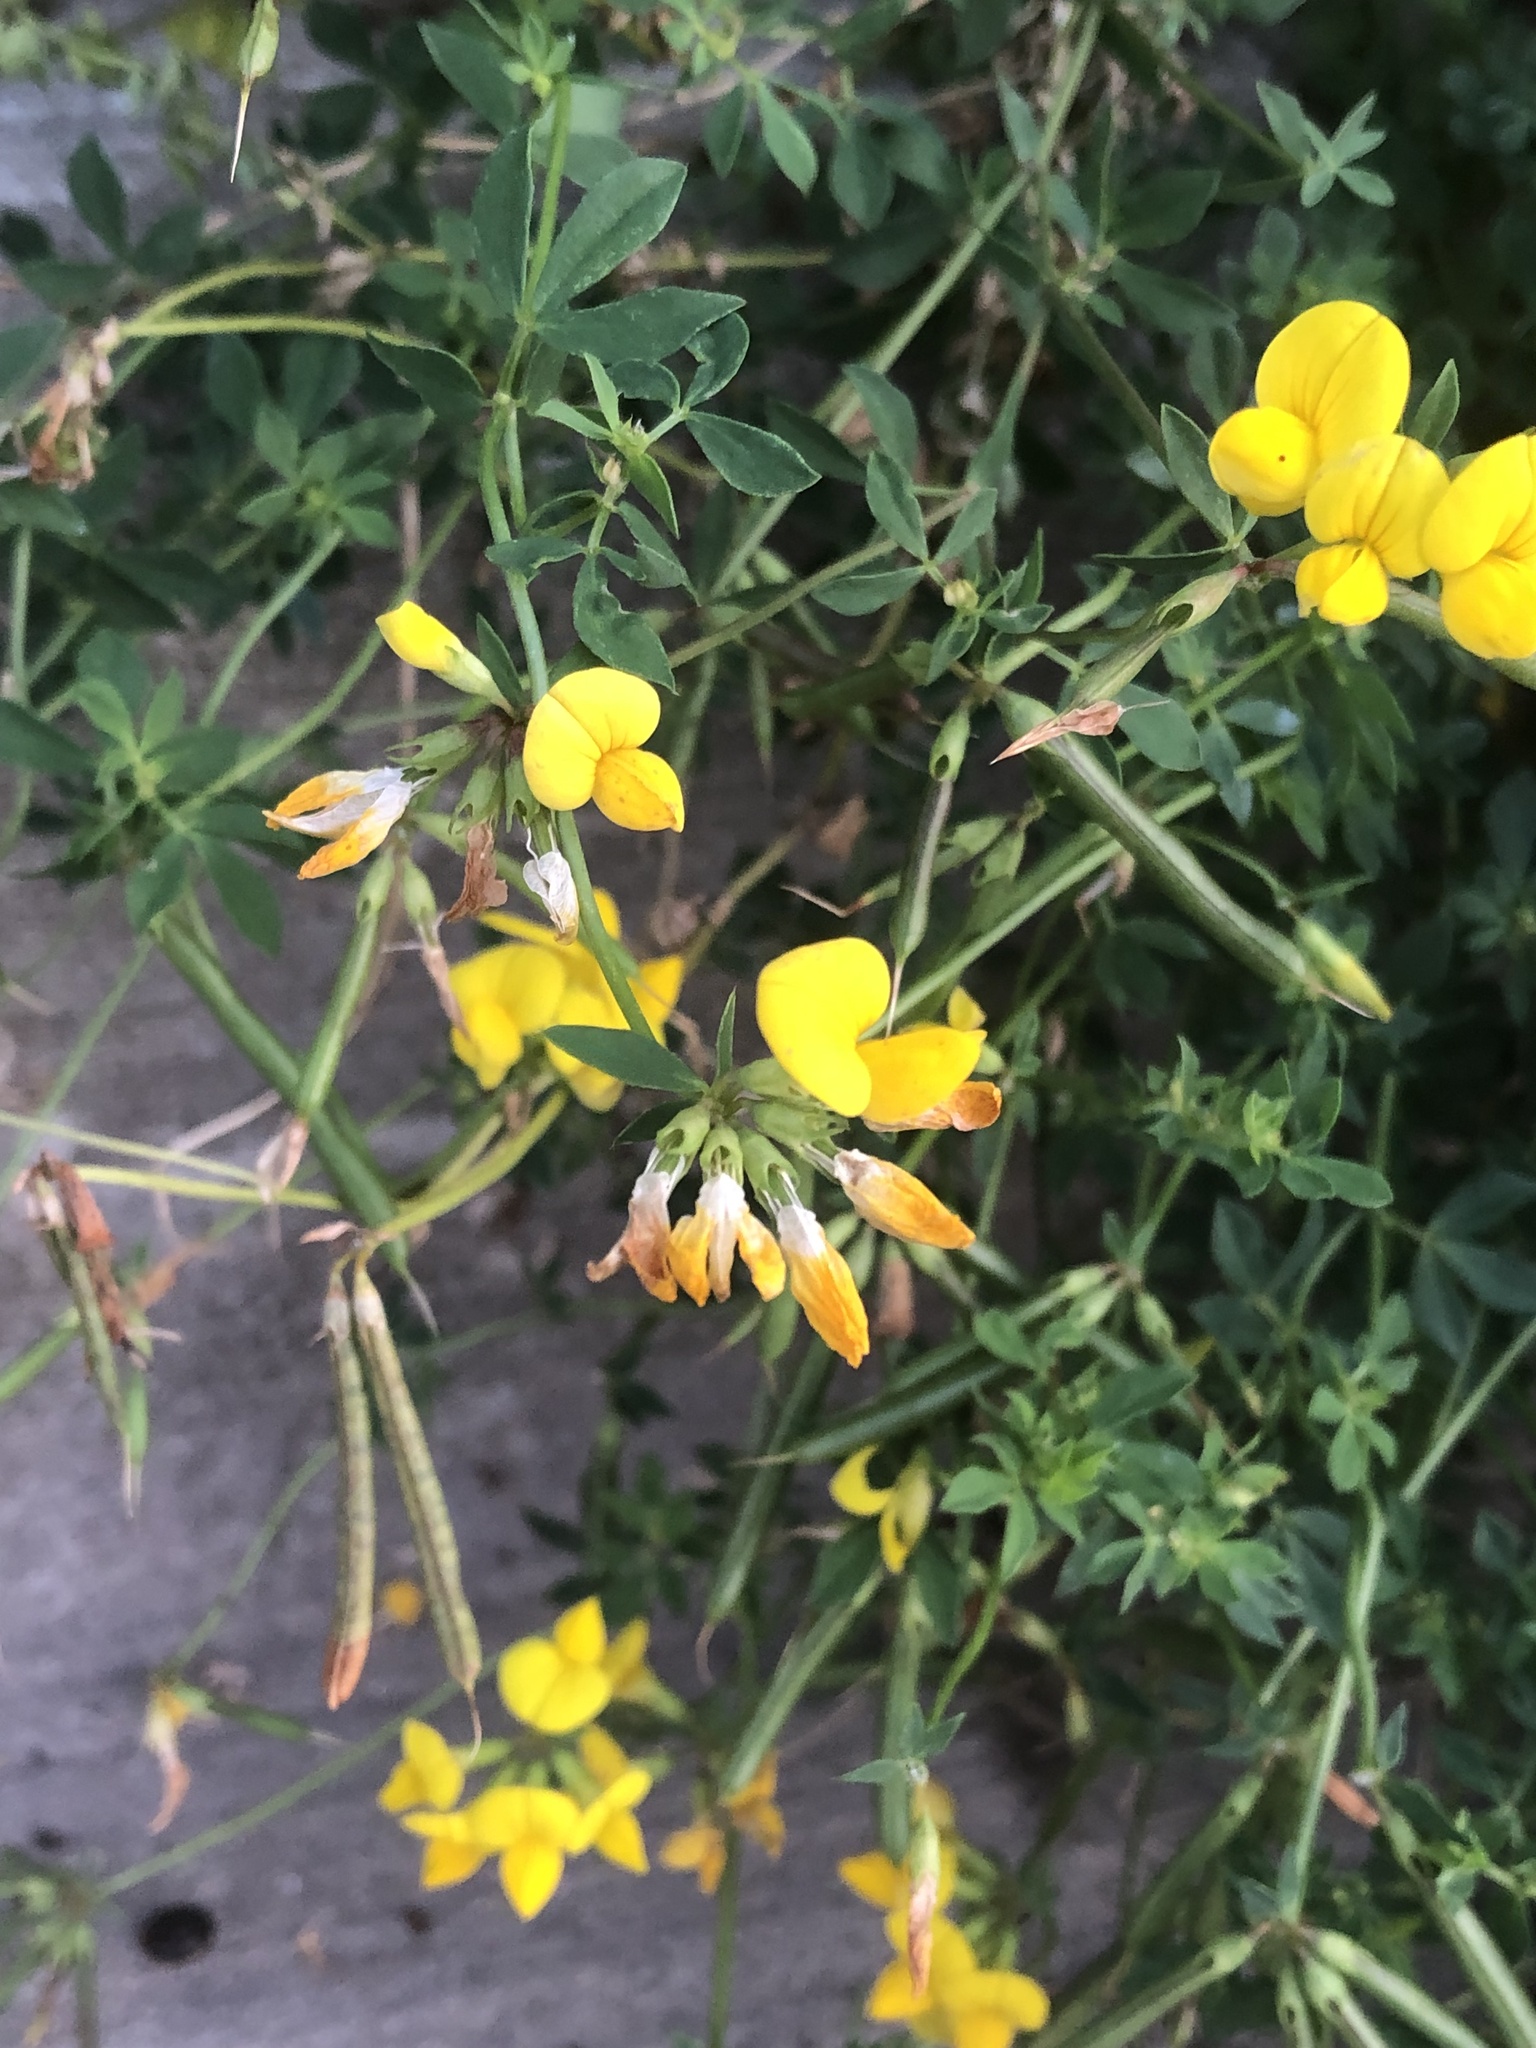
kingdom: Plantae
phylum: Tracheophyta
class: Magnoliopsida
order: Fabales
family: Fabaceae
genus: Lotus
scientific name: Lotus corniculatus
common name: Common bird's-foot-trefoil
